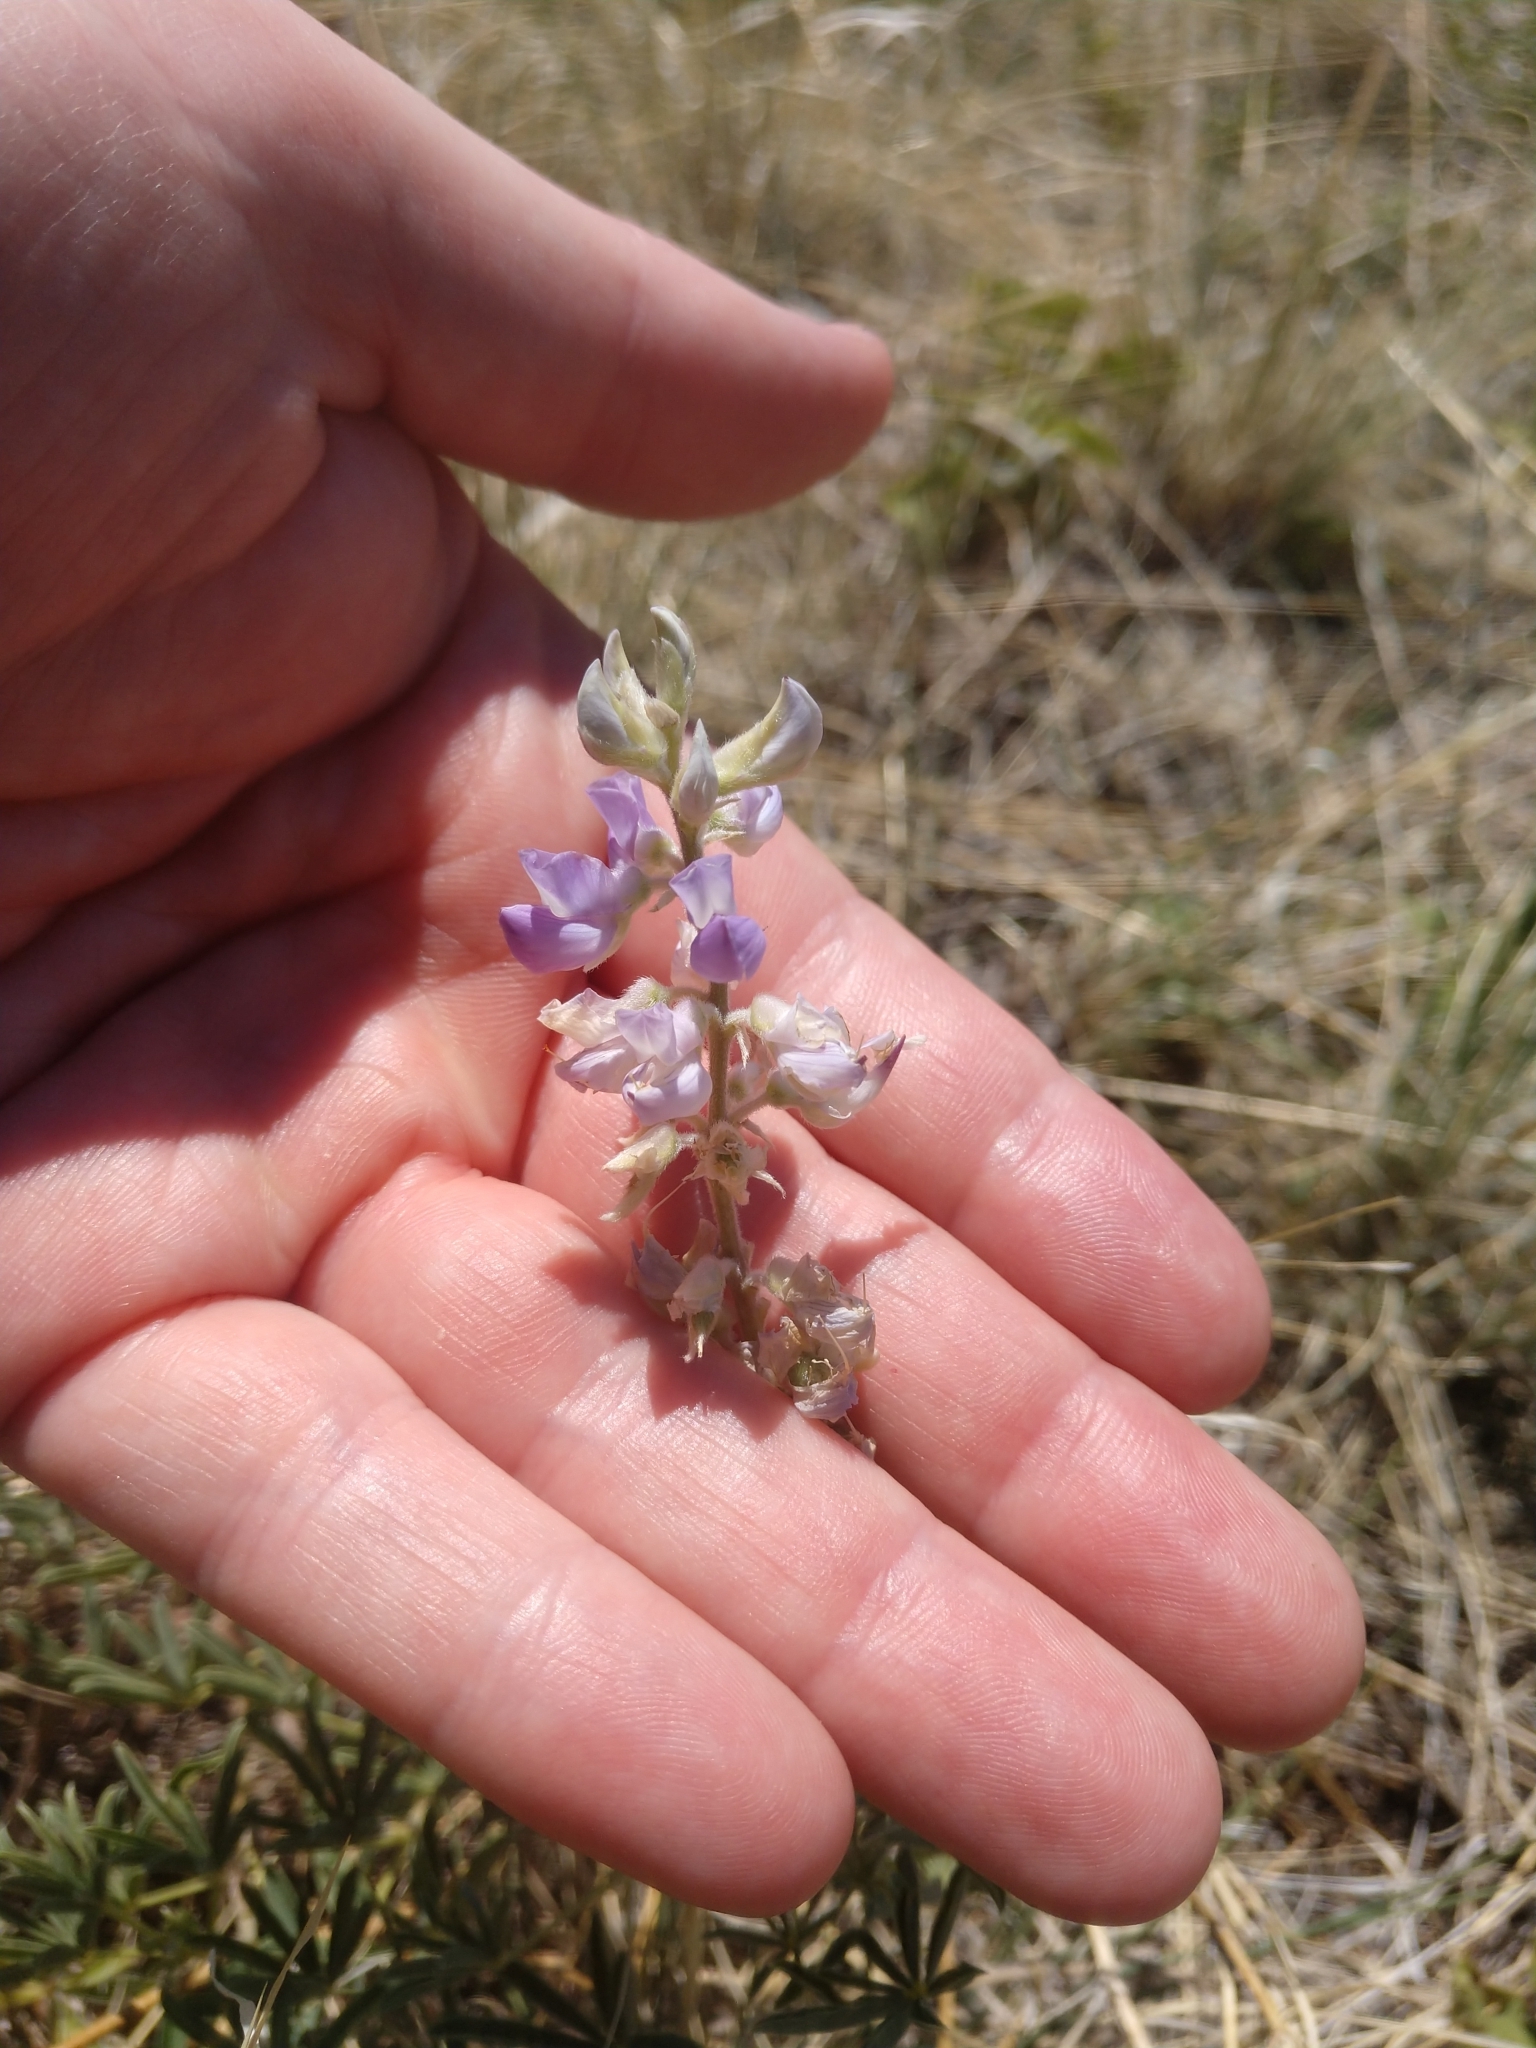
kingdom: Plantae
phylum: Tracheophyta
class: Magnoliopsida
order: Fabales
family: Fabaceae
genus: Lupinus
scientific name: Lupinus argenteus
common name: Silvery lupine
